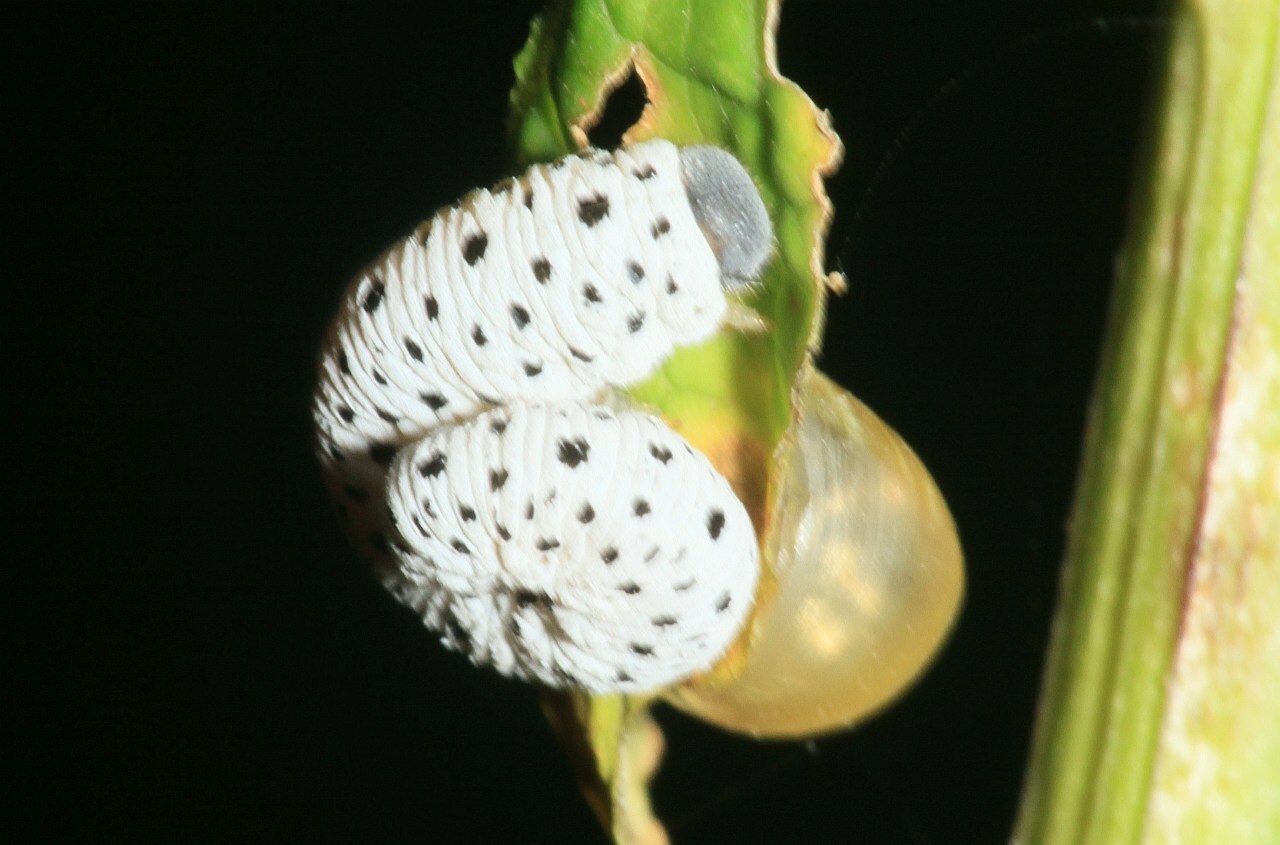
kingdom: Animalia
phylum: Arthropoda
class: Insecta
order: Hymenoptera
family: Tenthredinidae
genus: Tenthredo
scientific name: Tenthredo scrophulariae
